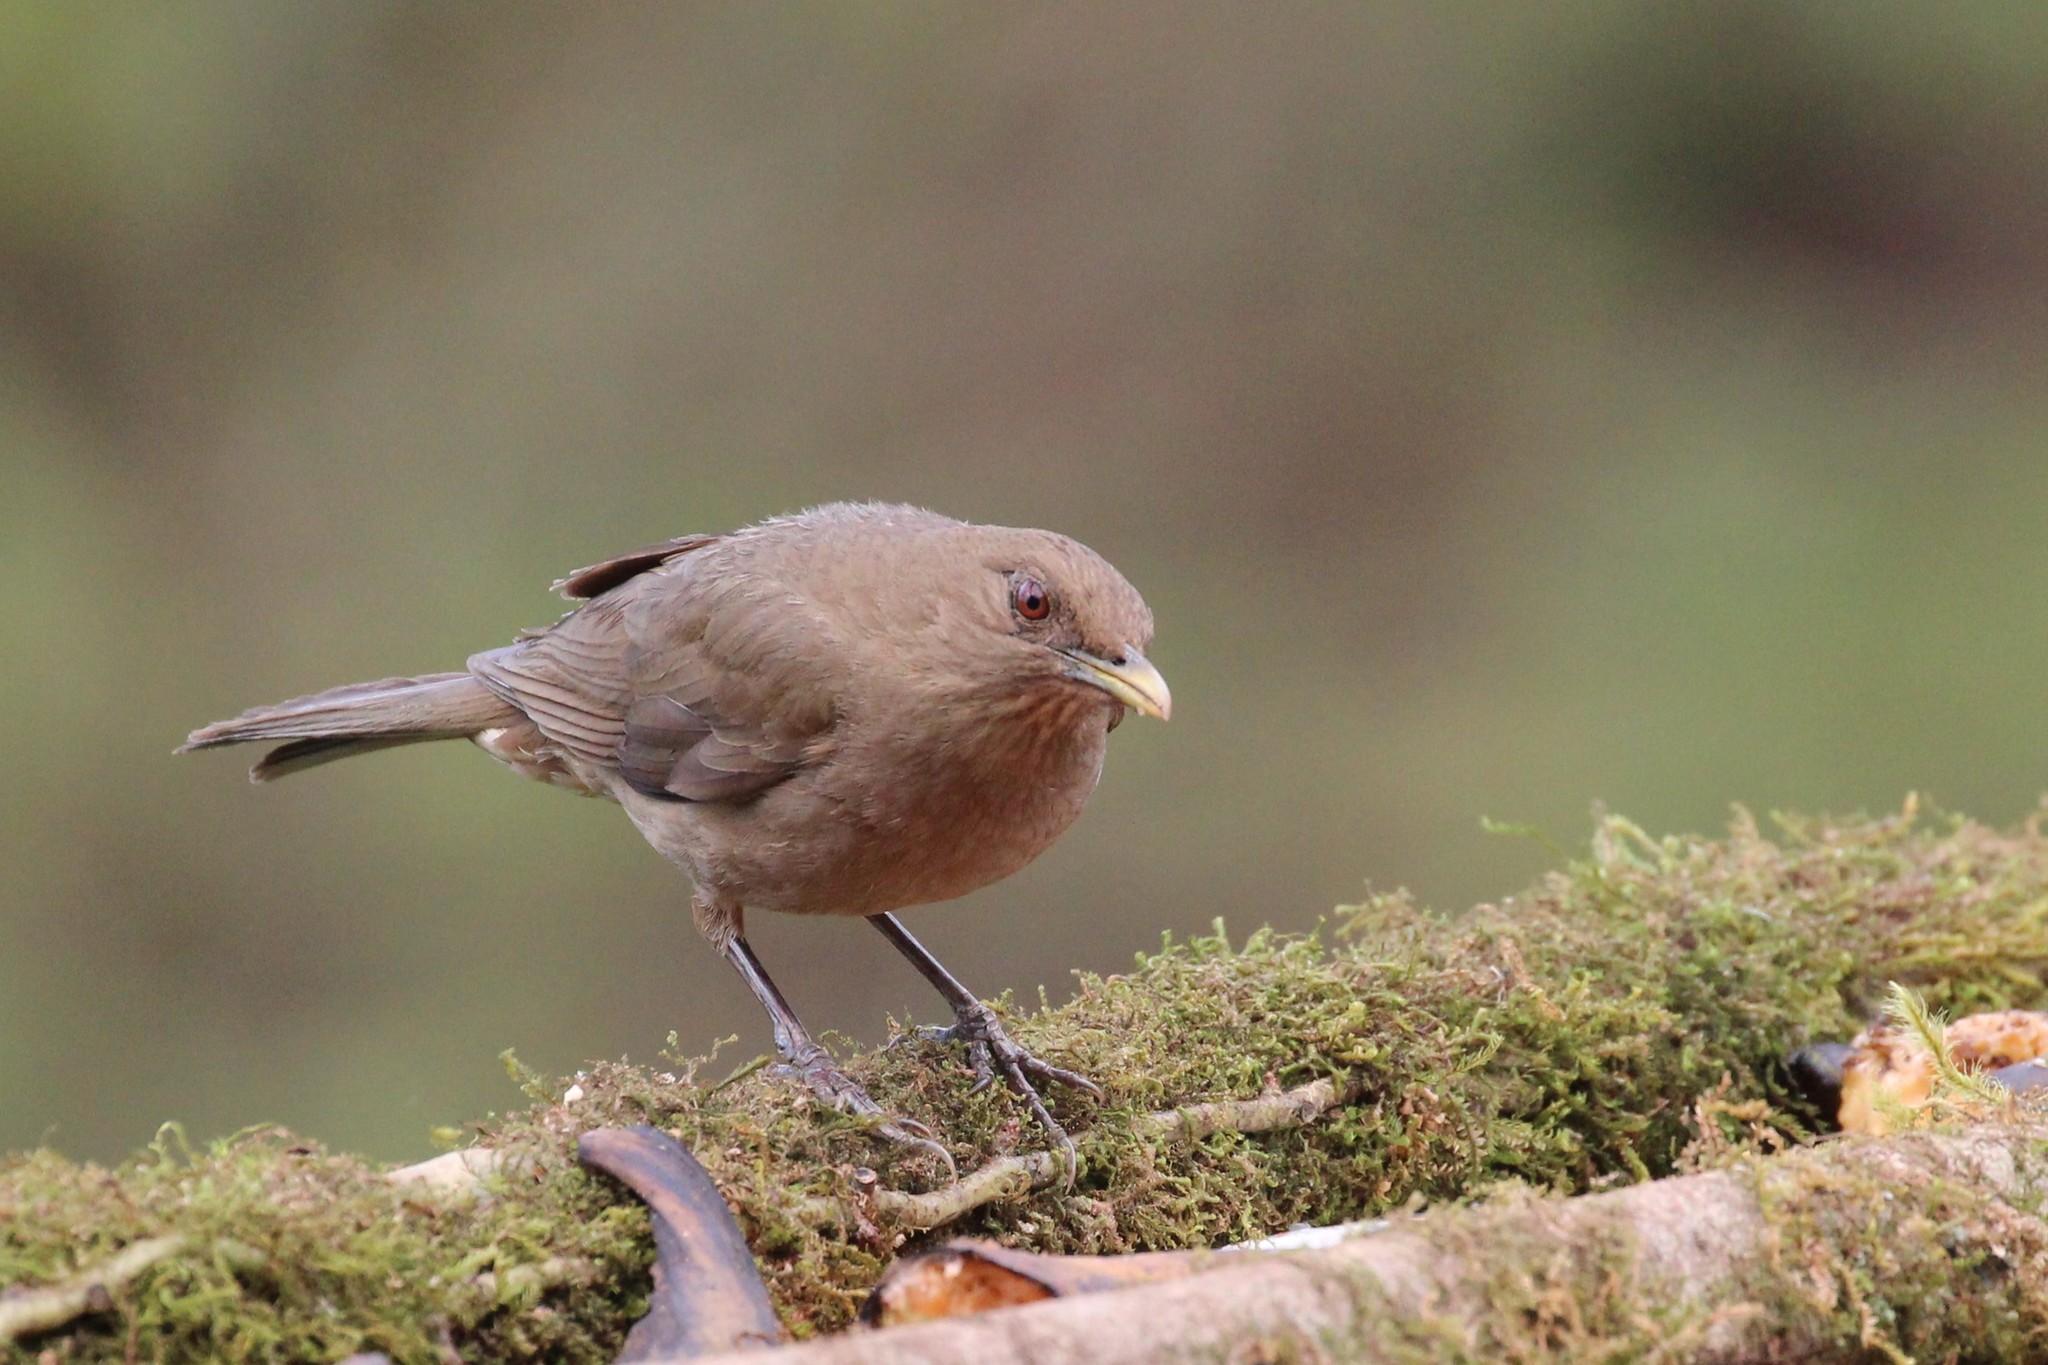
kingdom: Animalia
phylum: Chordata
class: Aves
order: Passeriformes
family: Turdidae
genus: Turdus
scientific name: Turdus grayi
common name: Clay-colored thrush
